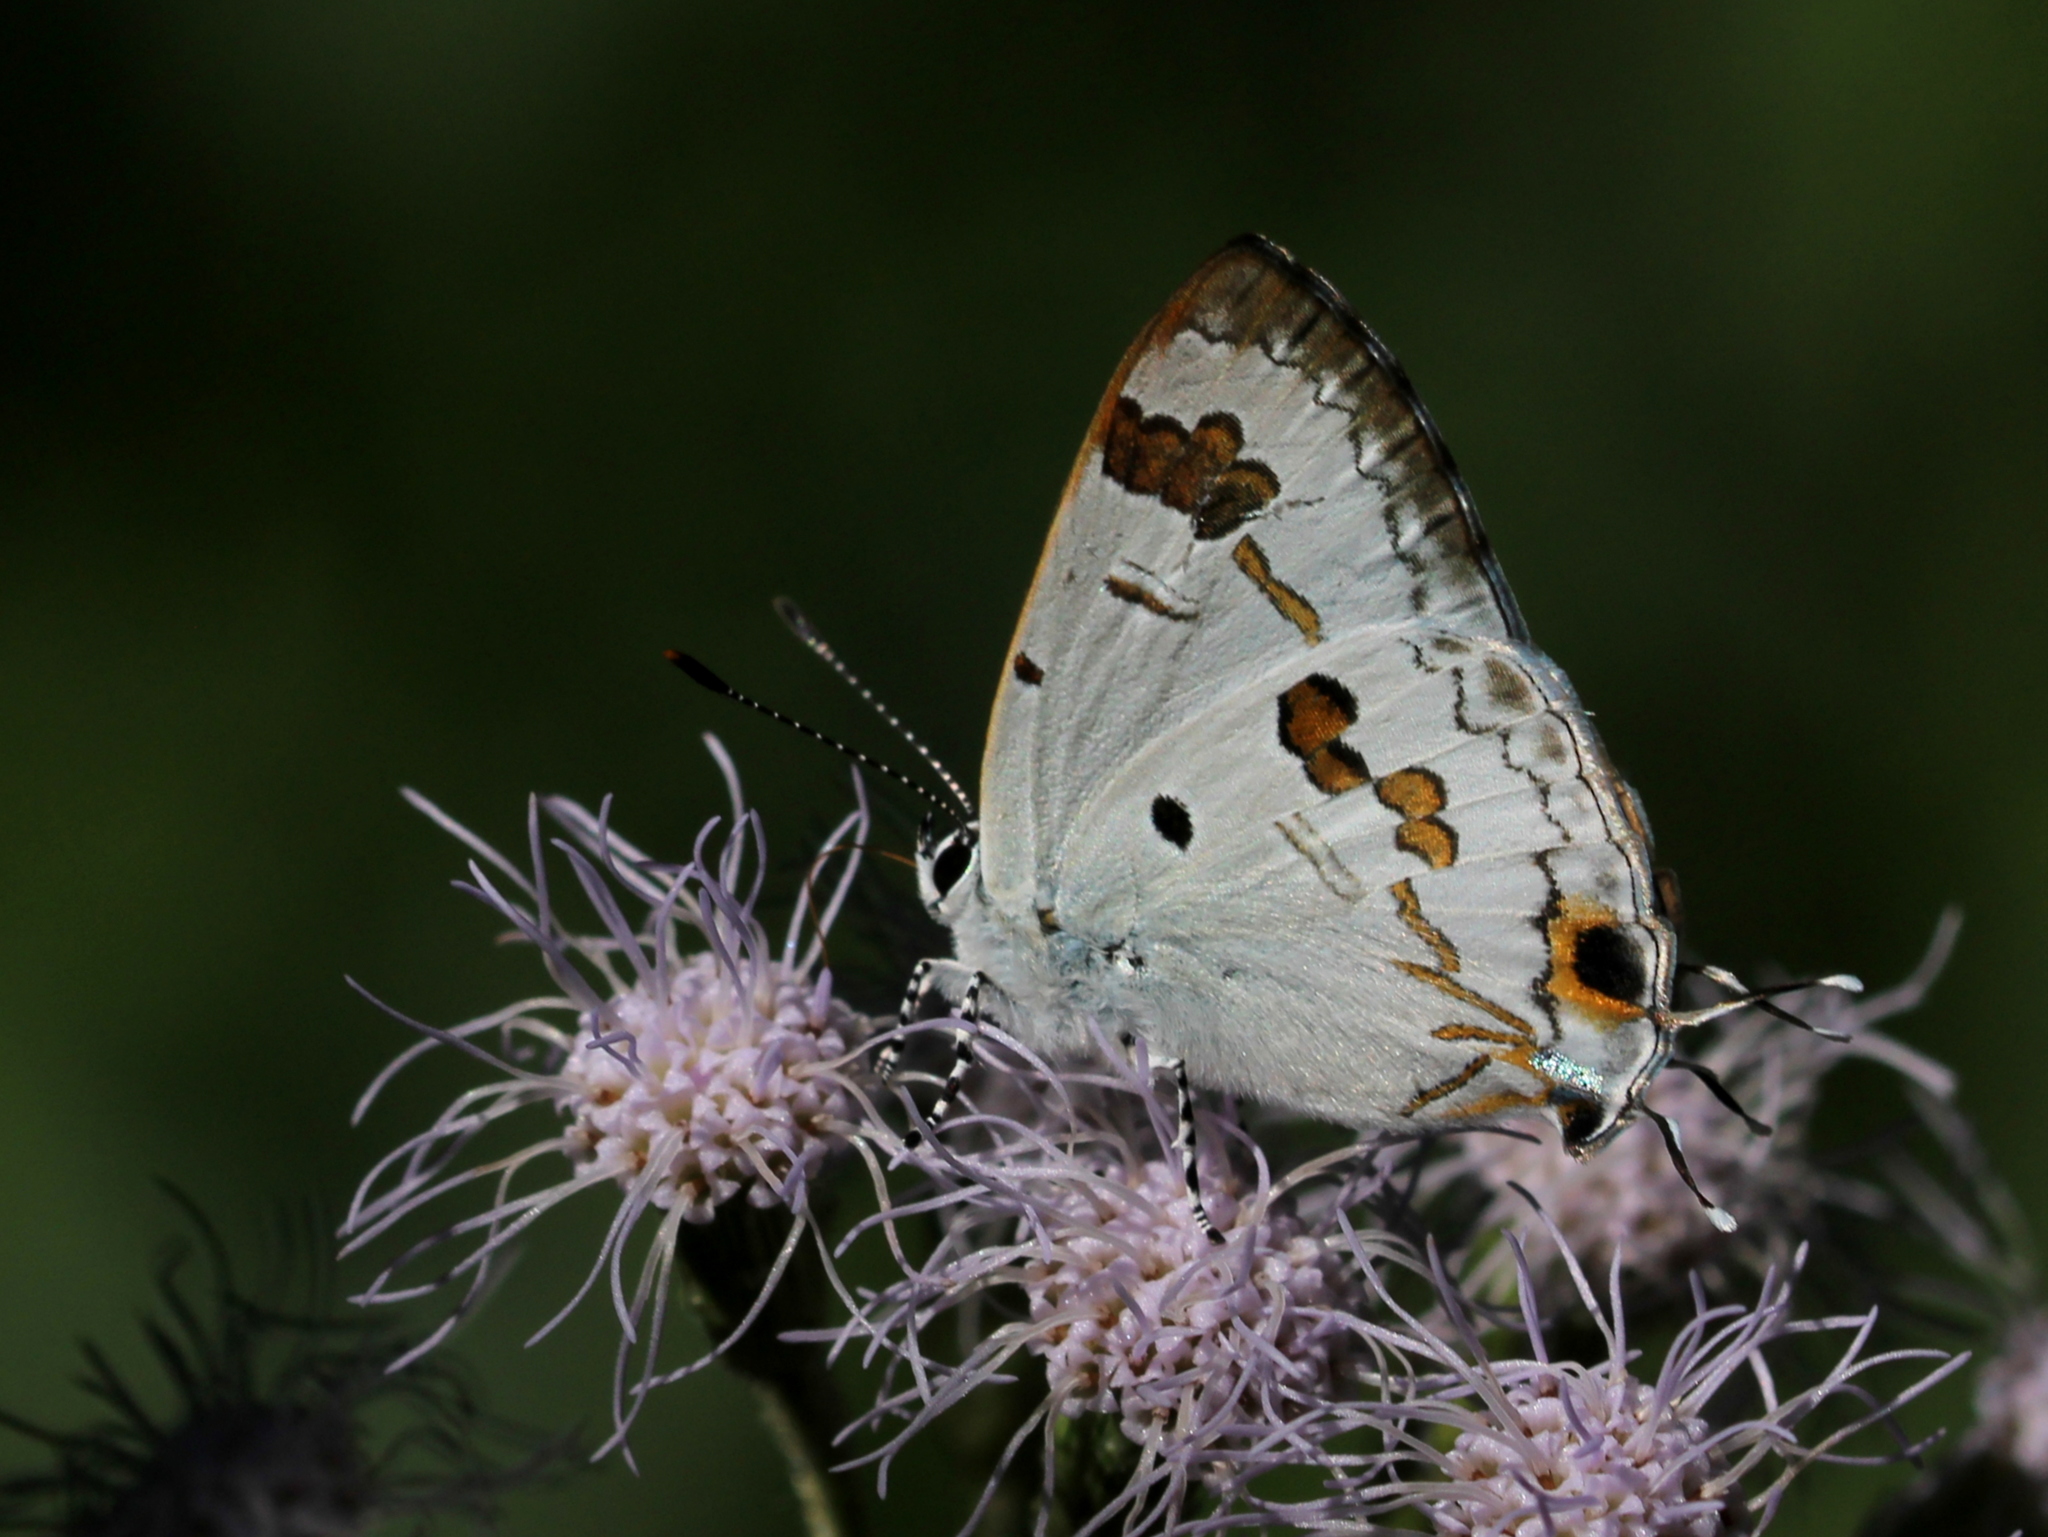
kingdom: Animalia
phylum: Arthropoda
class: Insecta
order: Lepidoptera
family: Lycaenidae
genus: Chliaria
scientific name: Chliaria othona
